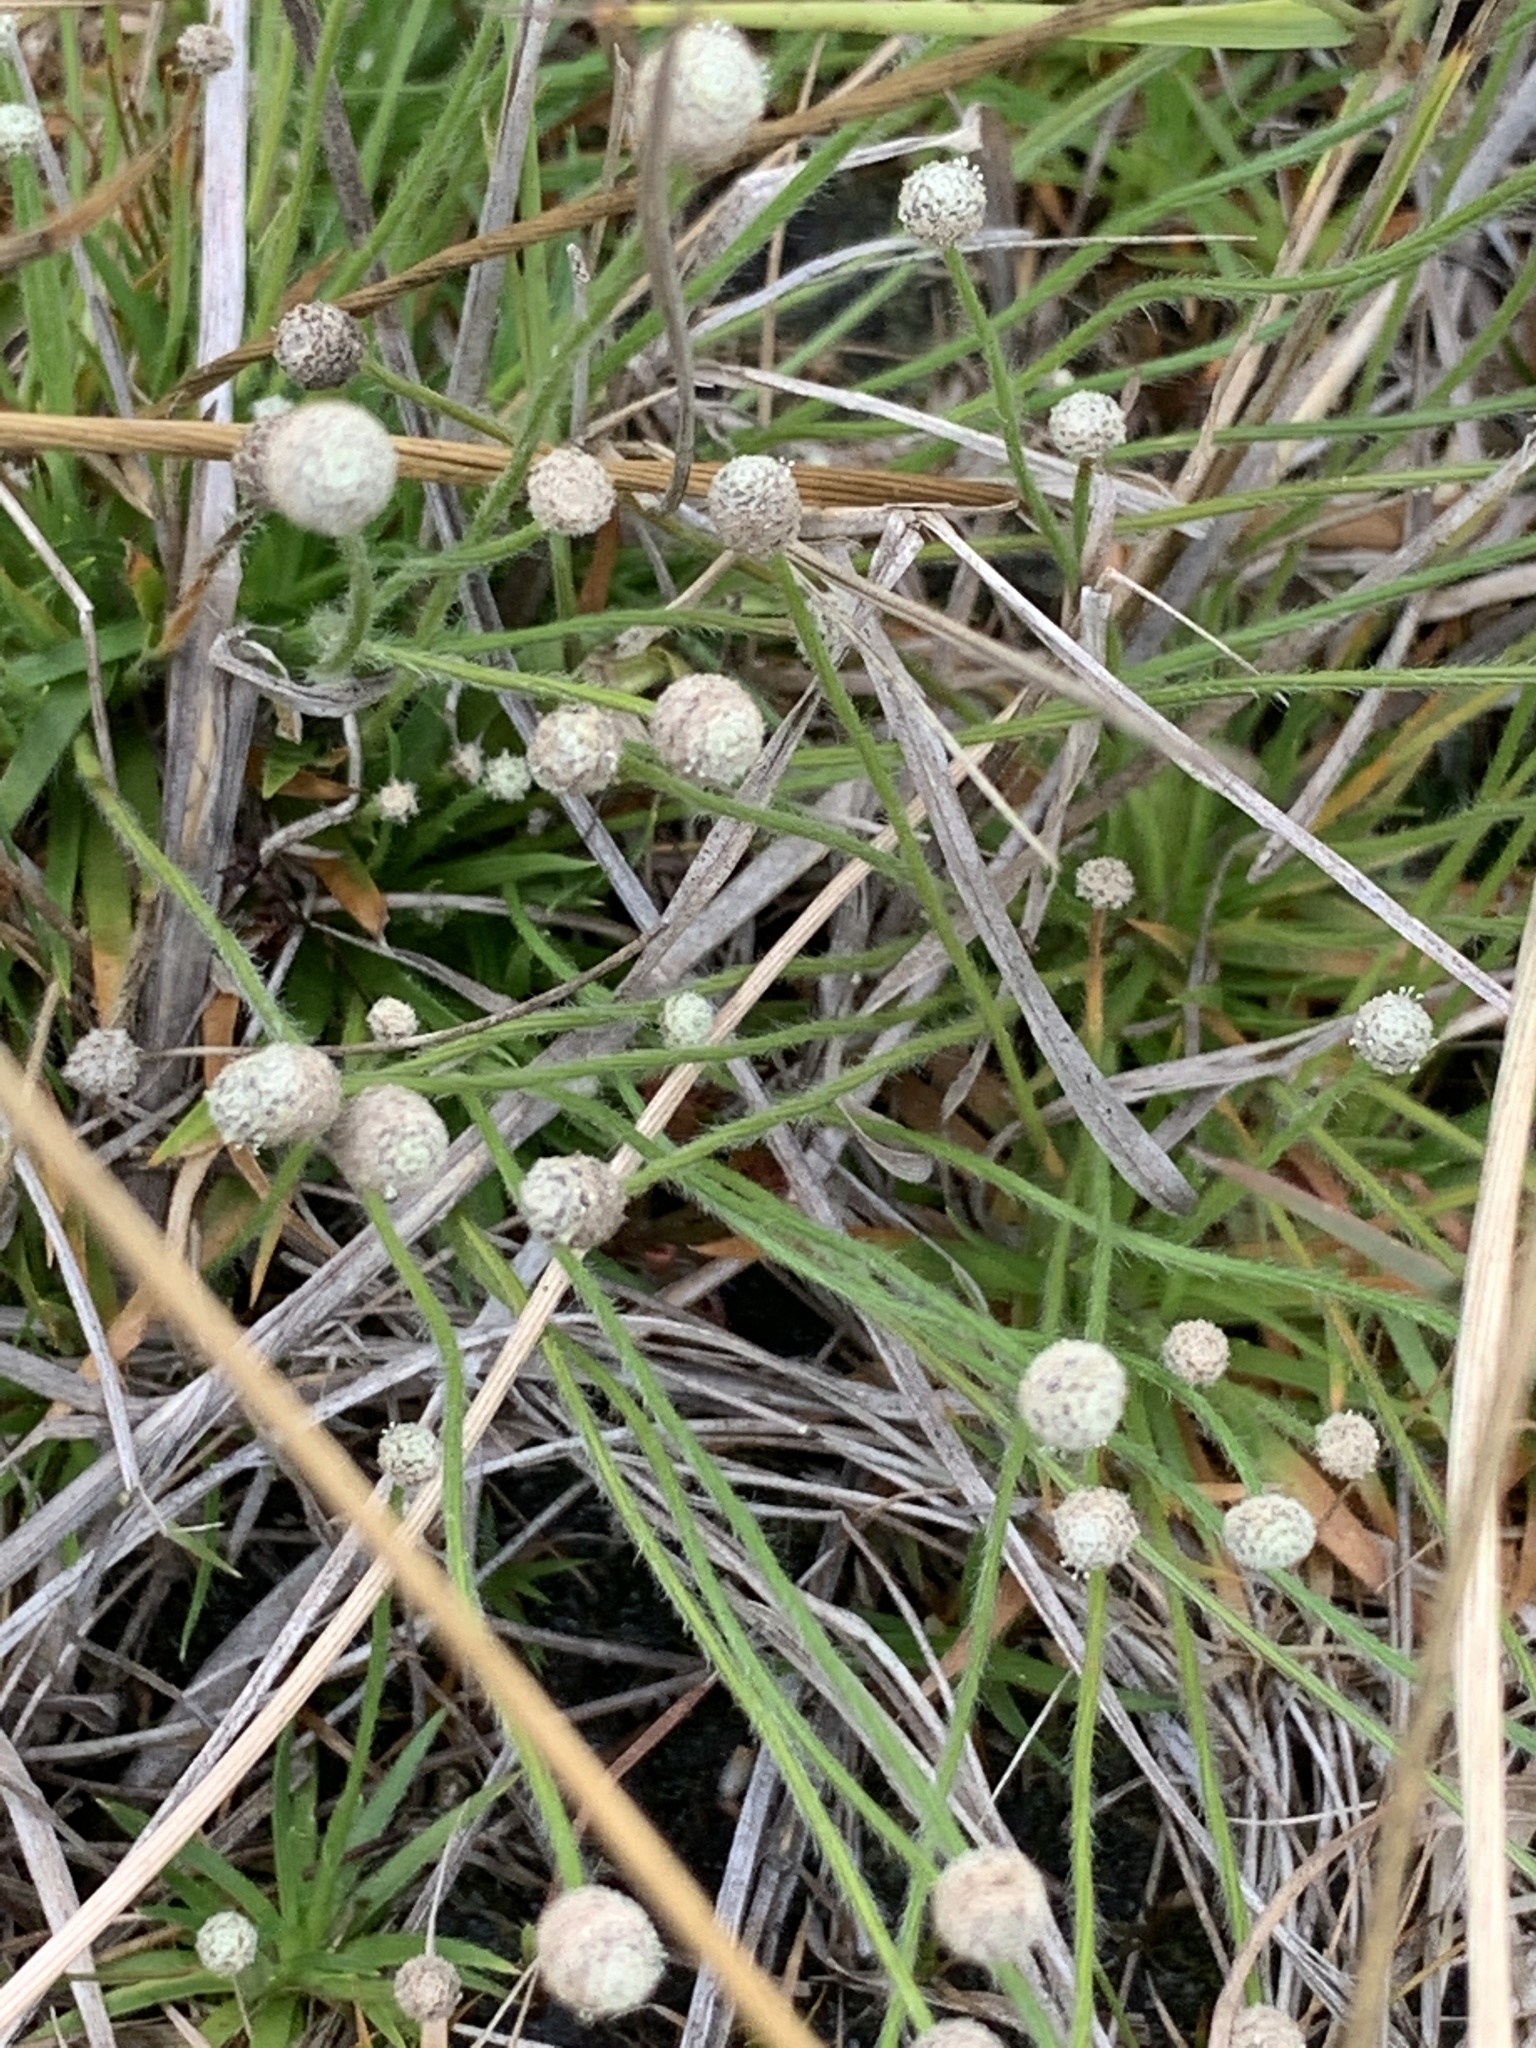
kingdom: Plantae
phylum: Tracheophyta
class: Liliopsida
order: Poales
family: Eriocaulaceae
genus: Paepalanthus
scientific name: Paepalanthus minus
